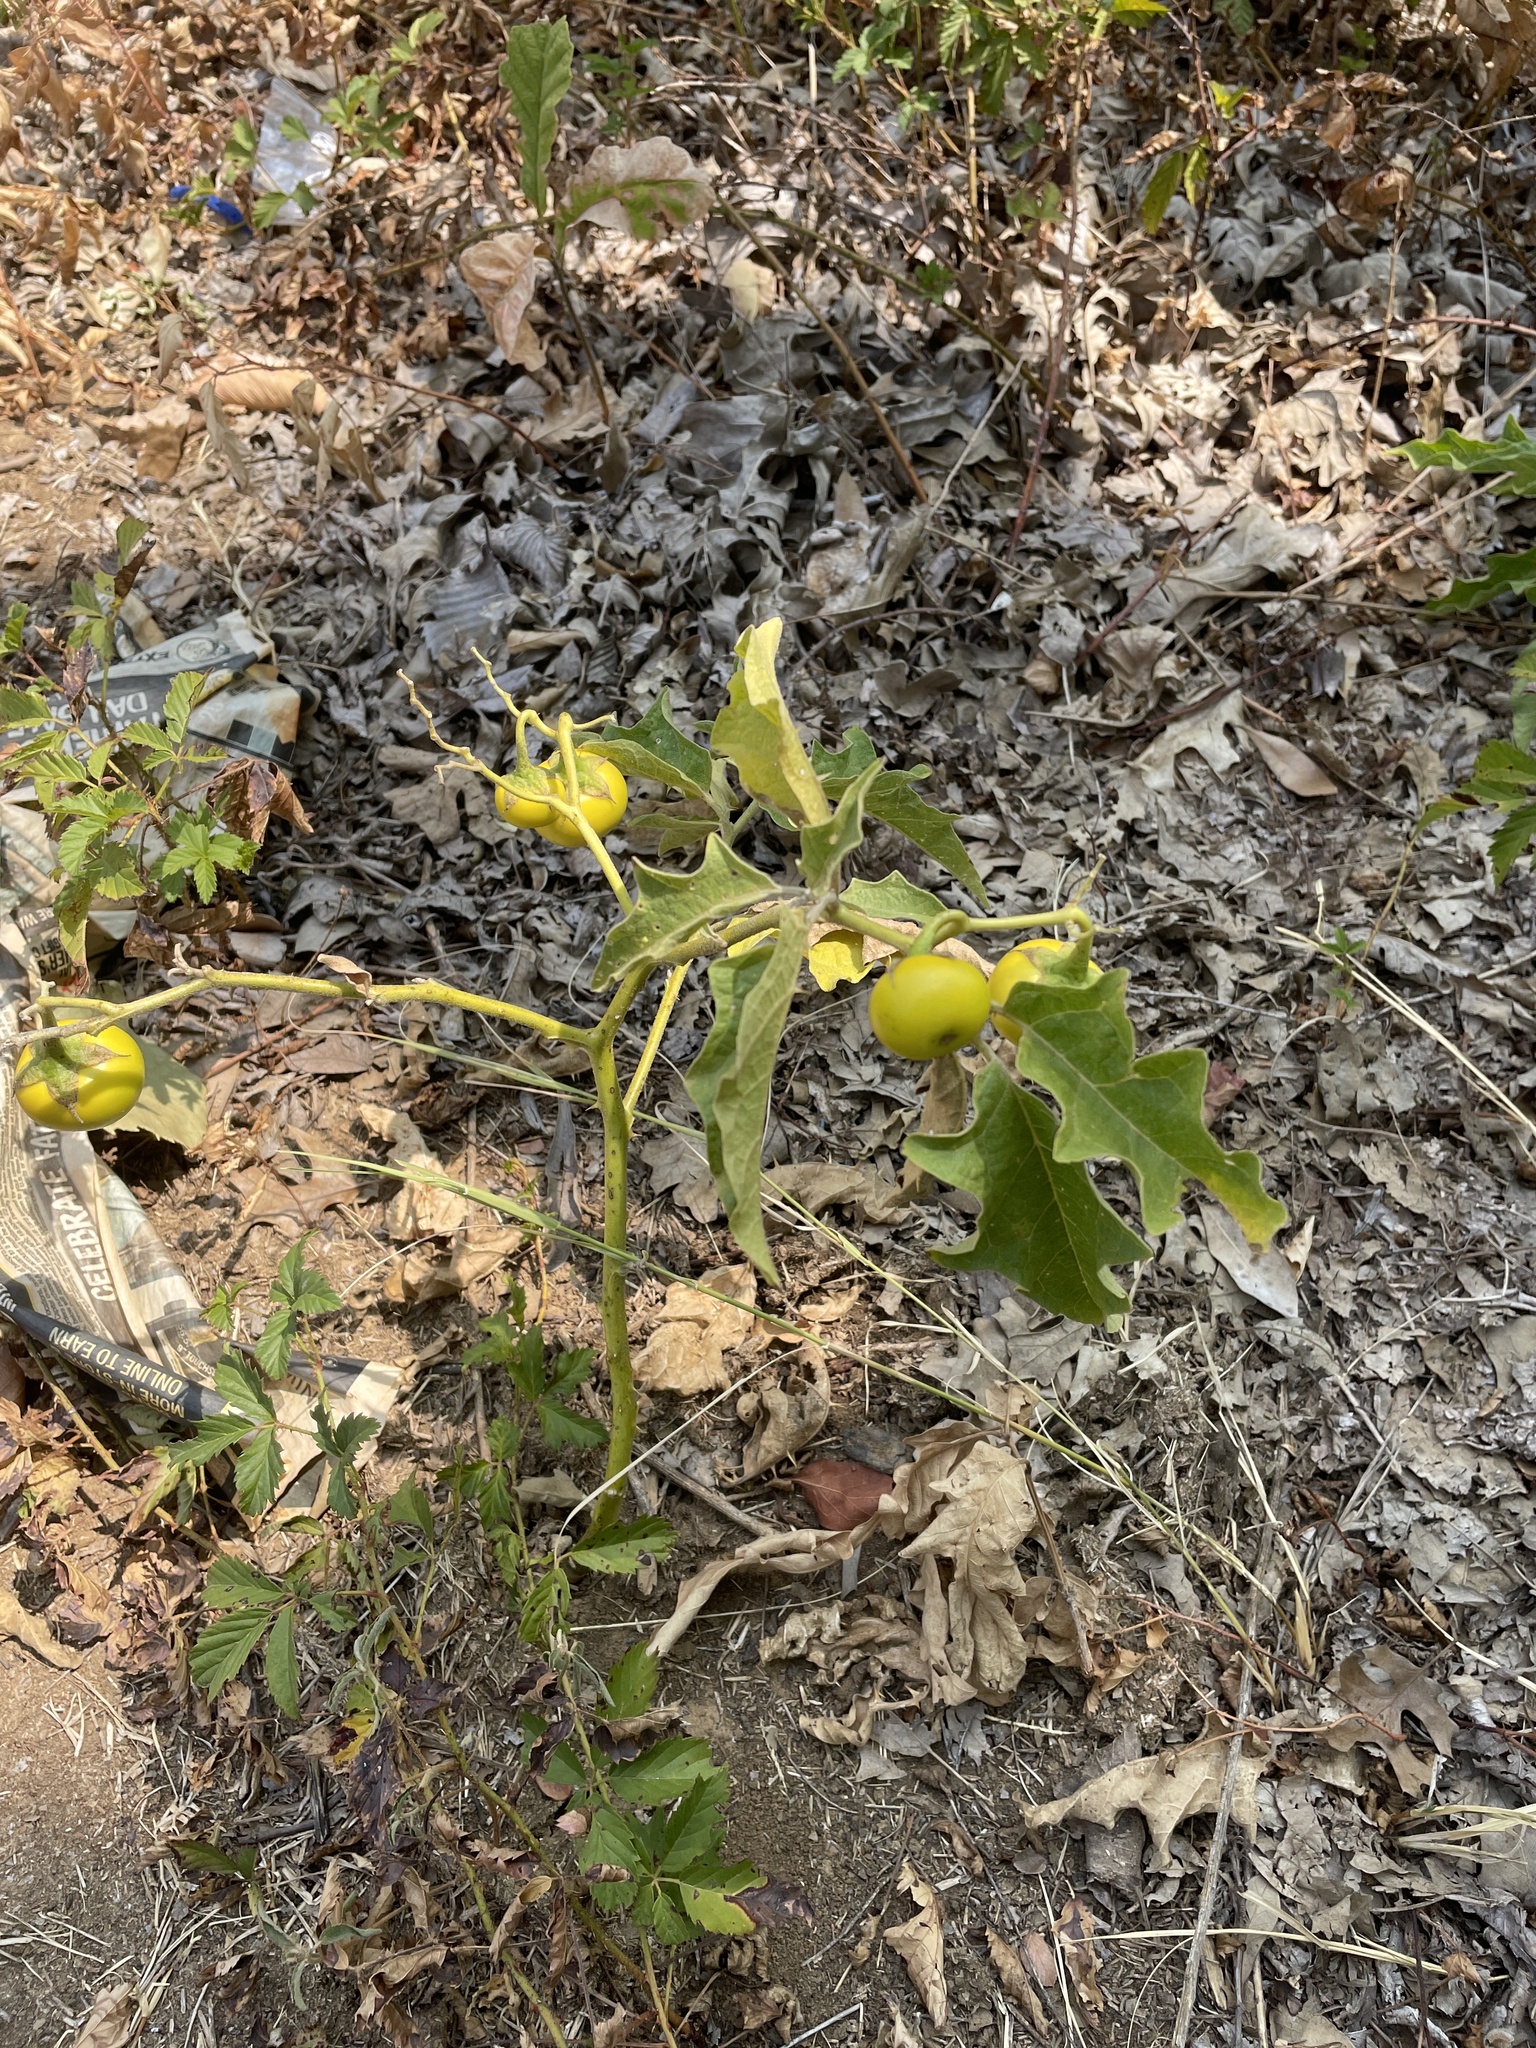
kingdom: Plantae
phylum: Tracheophyta
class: Magnoliopsida
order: Solanales
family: Solanaceae
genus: Solanum
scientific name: Solanum dimidiatum
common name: Carolina horse-nettle
